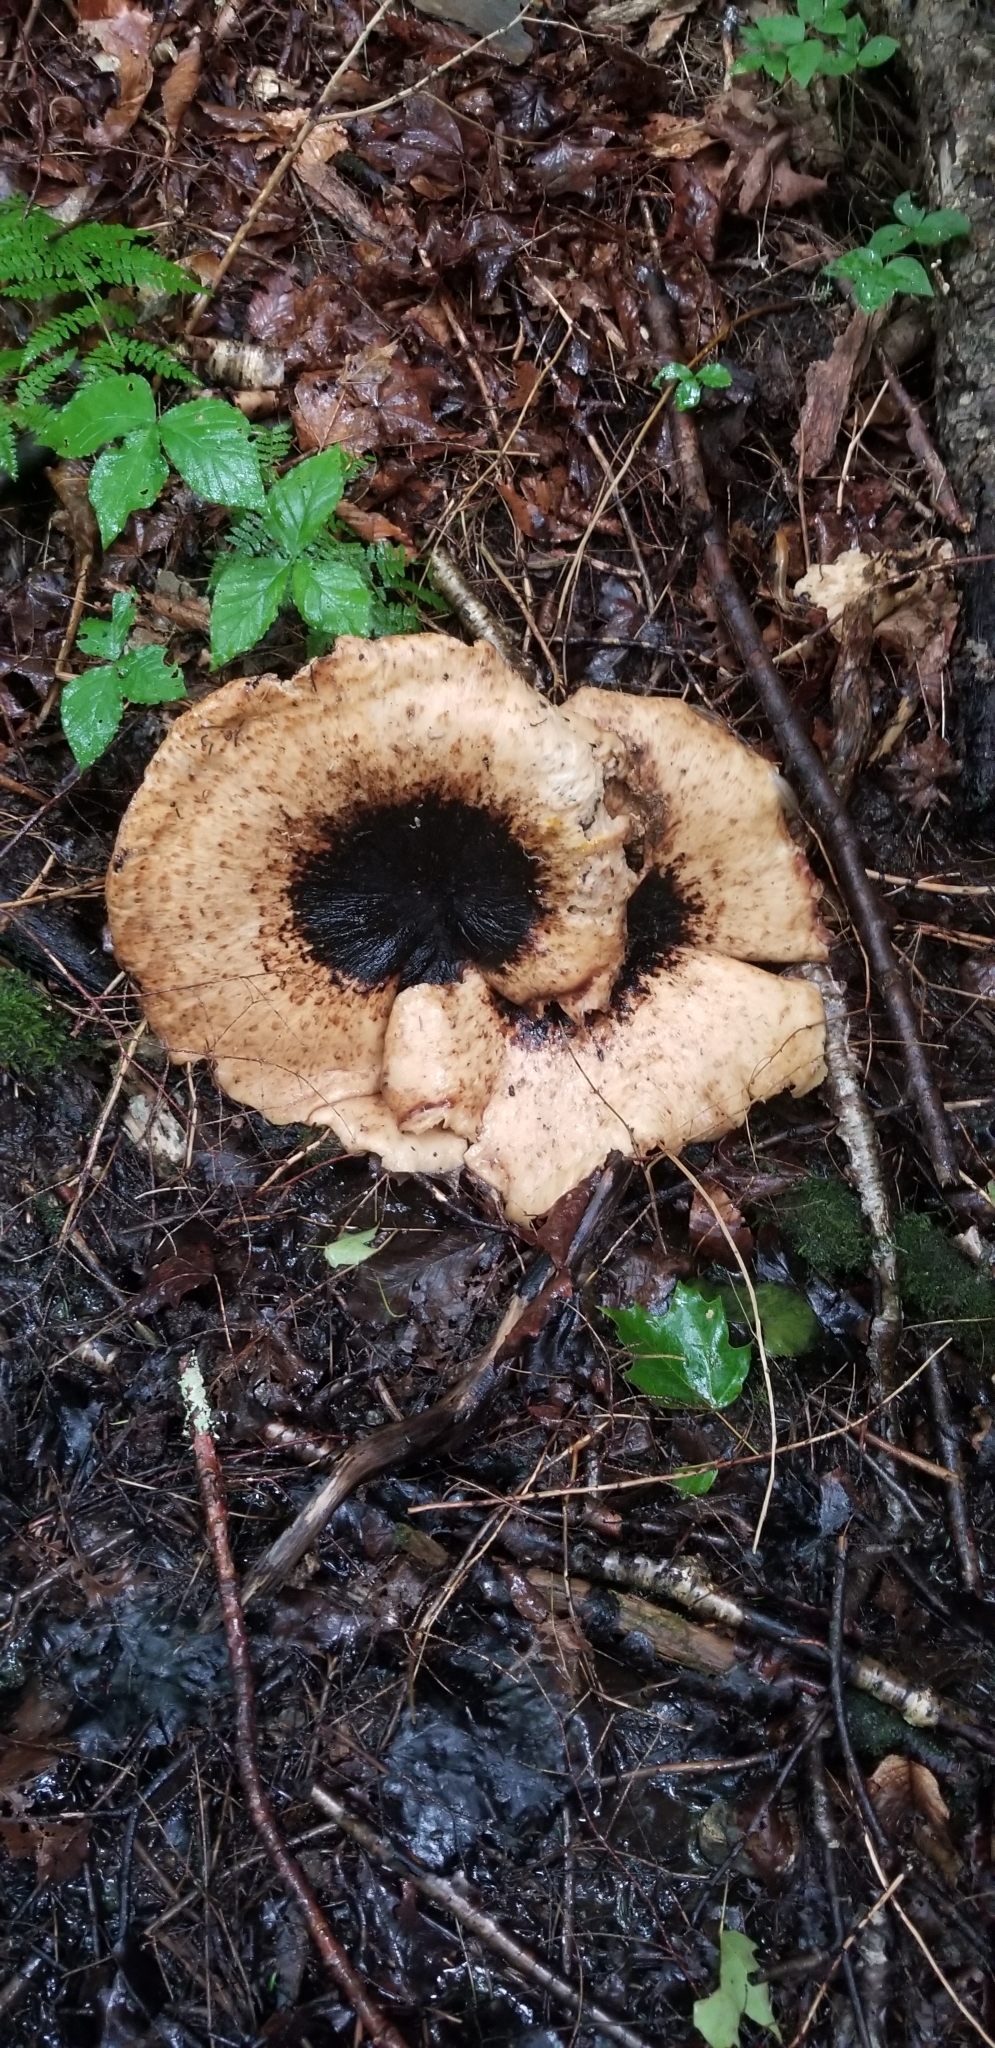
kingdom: Fungi
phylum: Basidiomycota
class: Agaricomycetes
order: Polyporales
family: Polyporaceae
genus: Cerioporus
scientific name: Cerioporus squamosus
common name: Dryad's saddle
